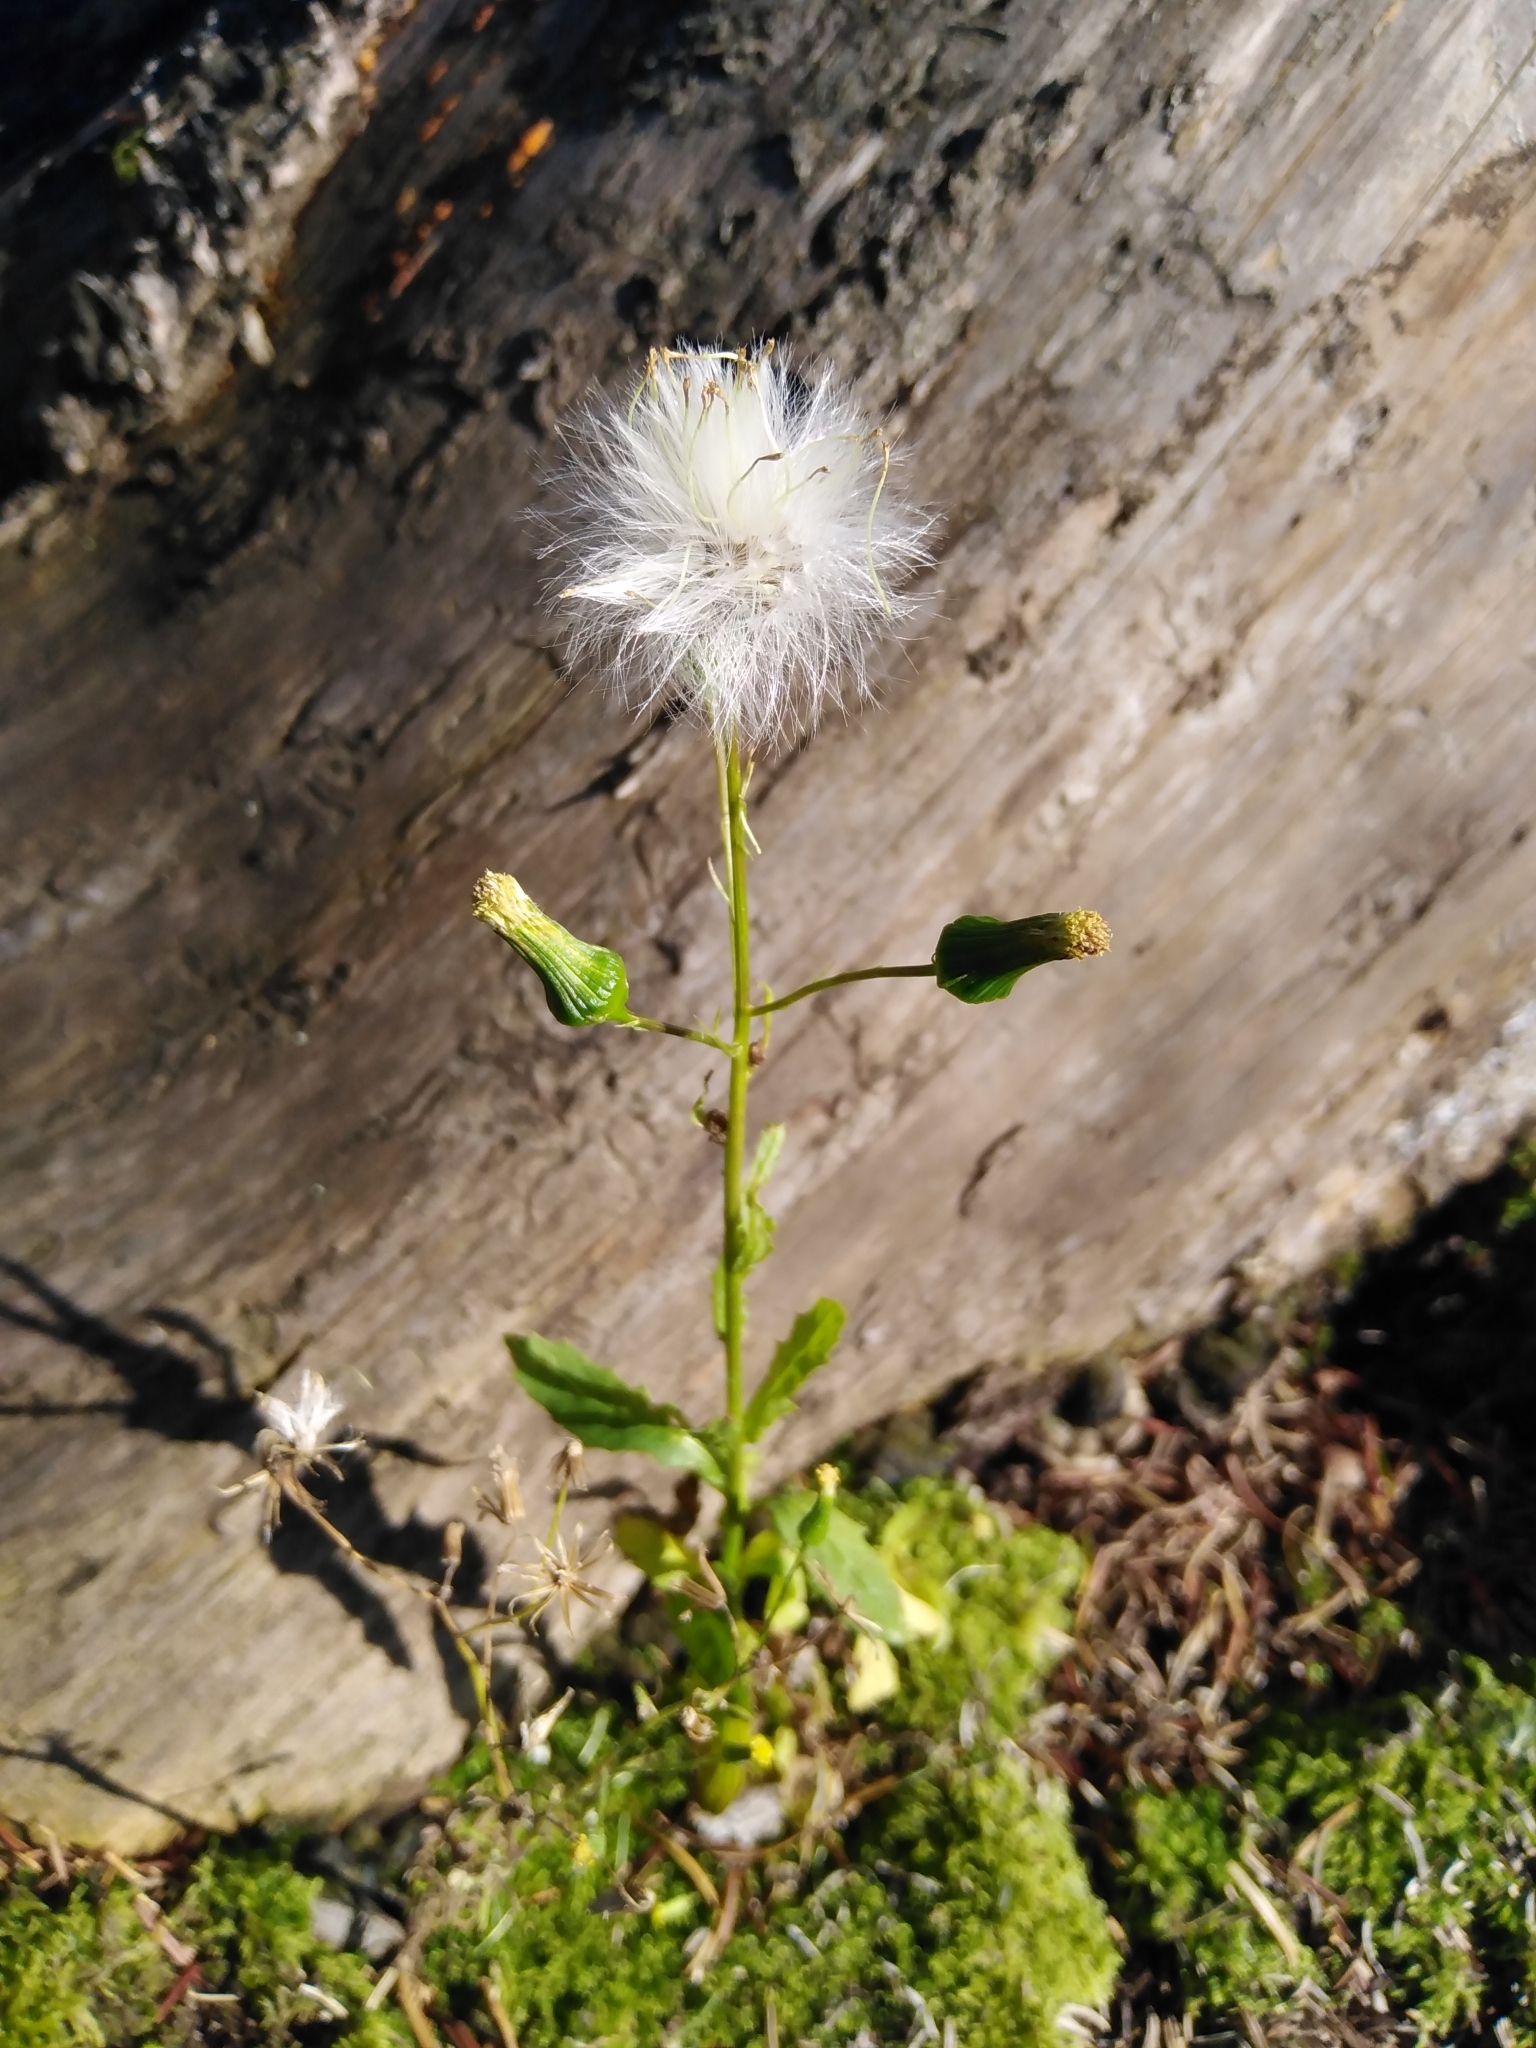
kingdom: Plantae
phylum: Tracheophyta
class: Magnoliopsida
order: Asterales
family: Asteraceae
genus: Erechtites
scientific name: Erechtites hieraciifolius
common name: American burnweed
